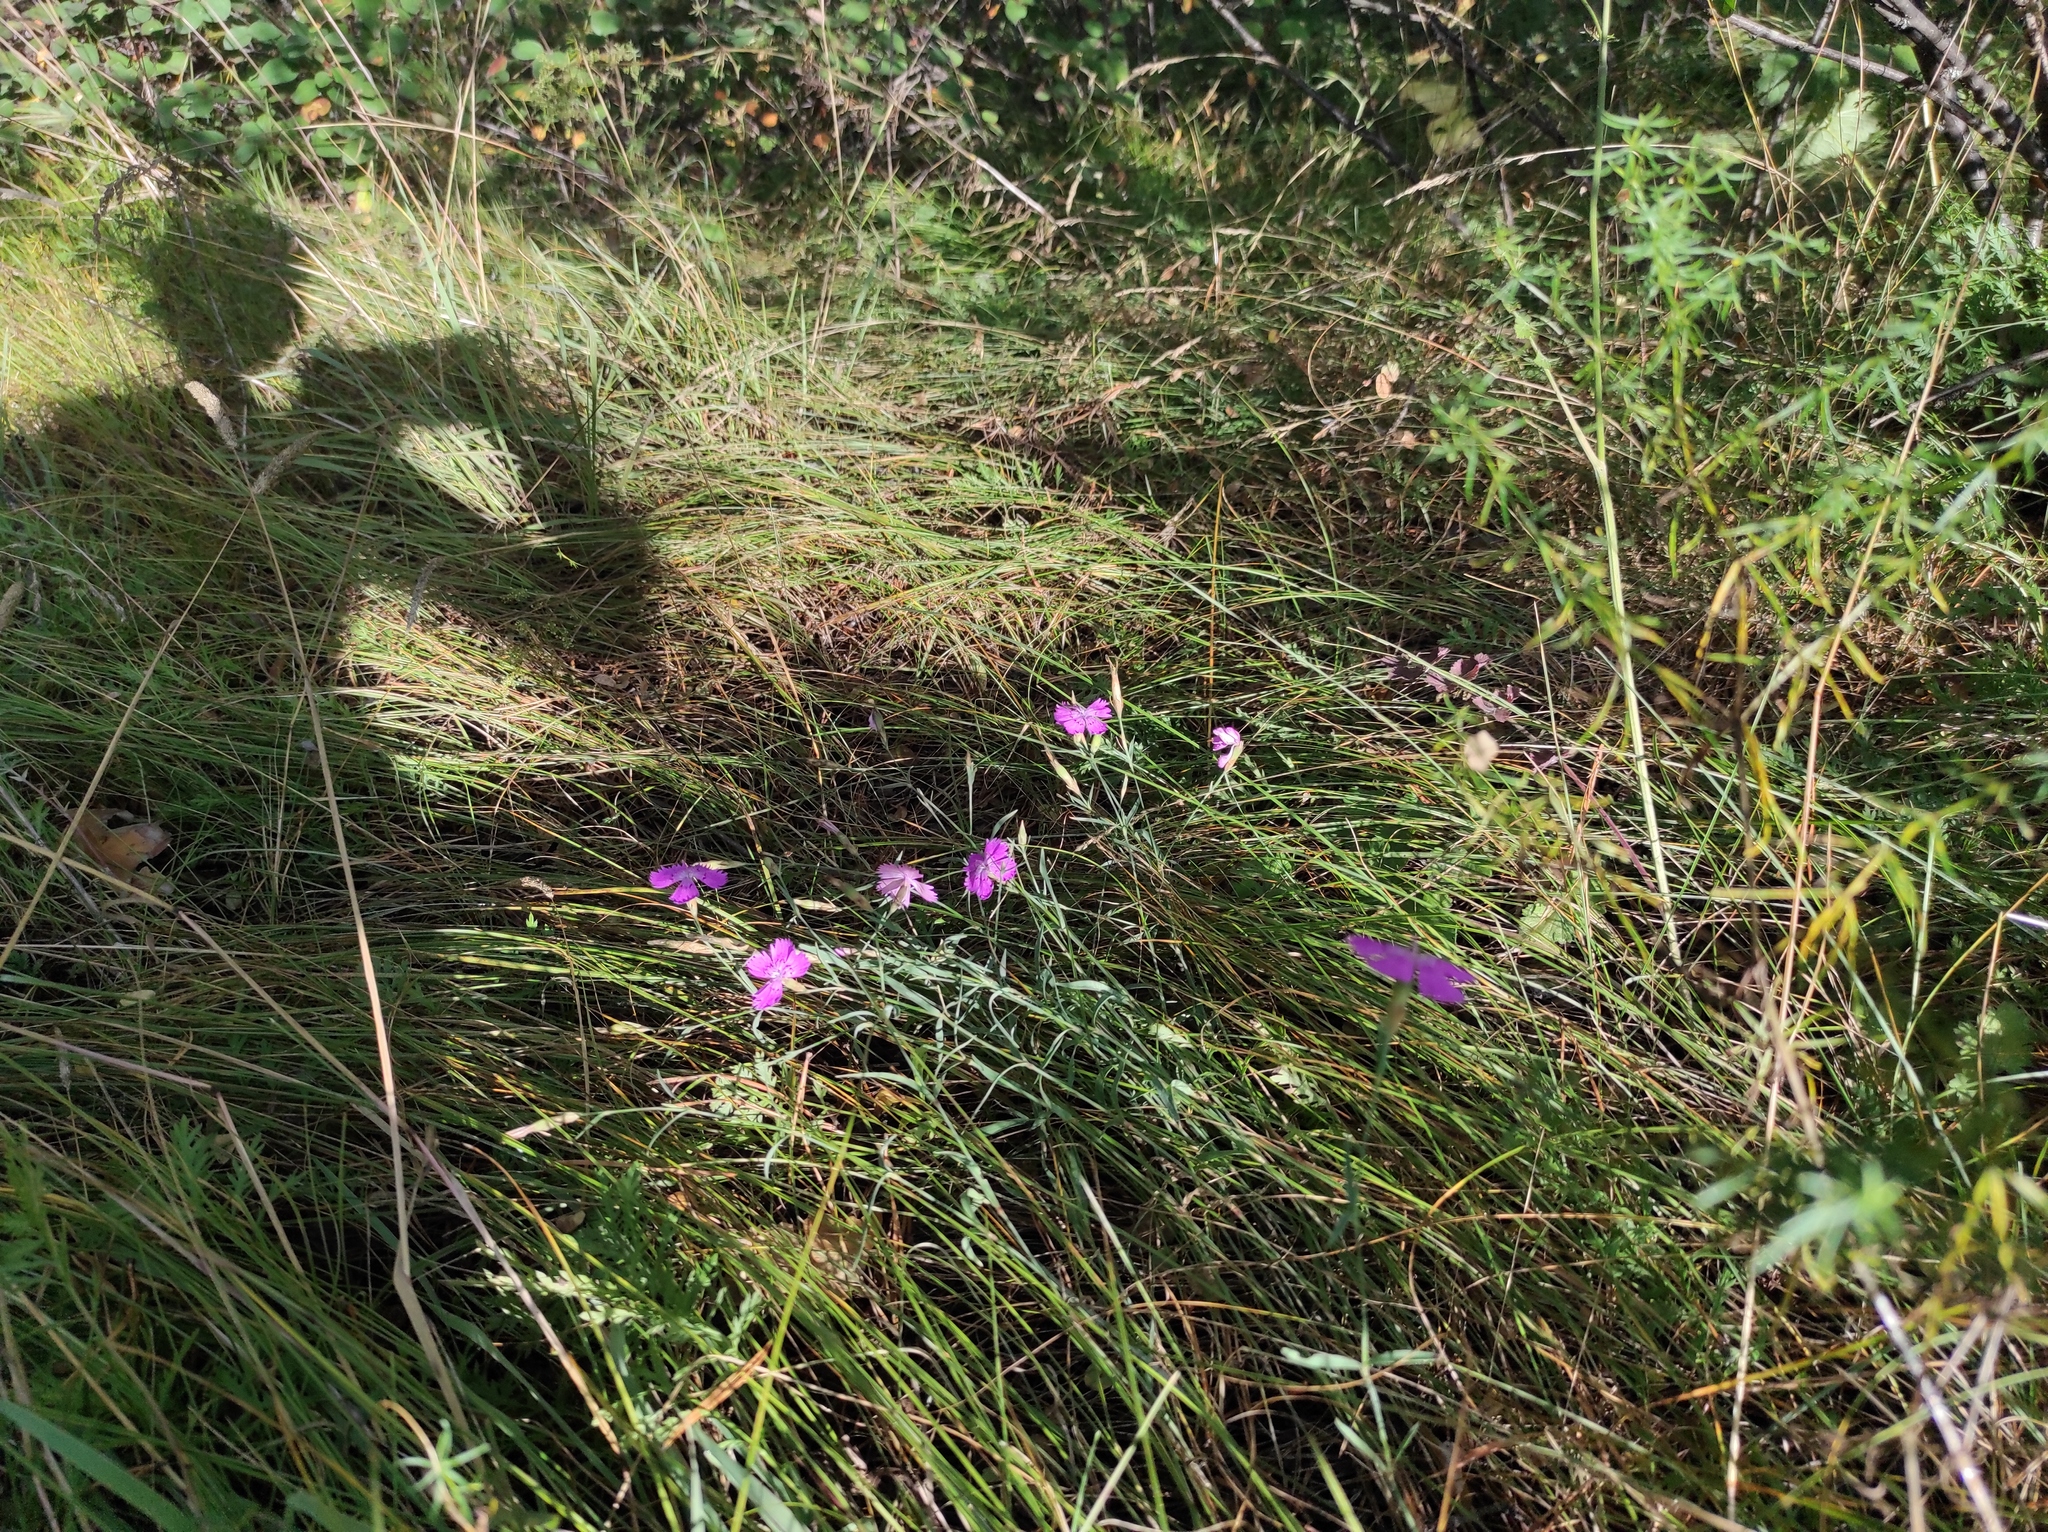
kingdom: Plantae
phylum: Tracheophyta
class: Magnoliopsida
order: Caryophyllales
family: Caryophyllaceae
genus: Dianthus
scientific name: Dianthus chinensis
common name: Rainbow pink
